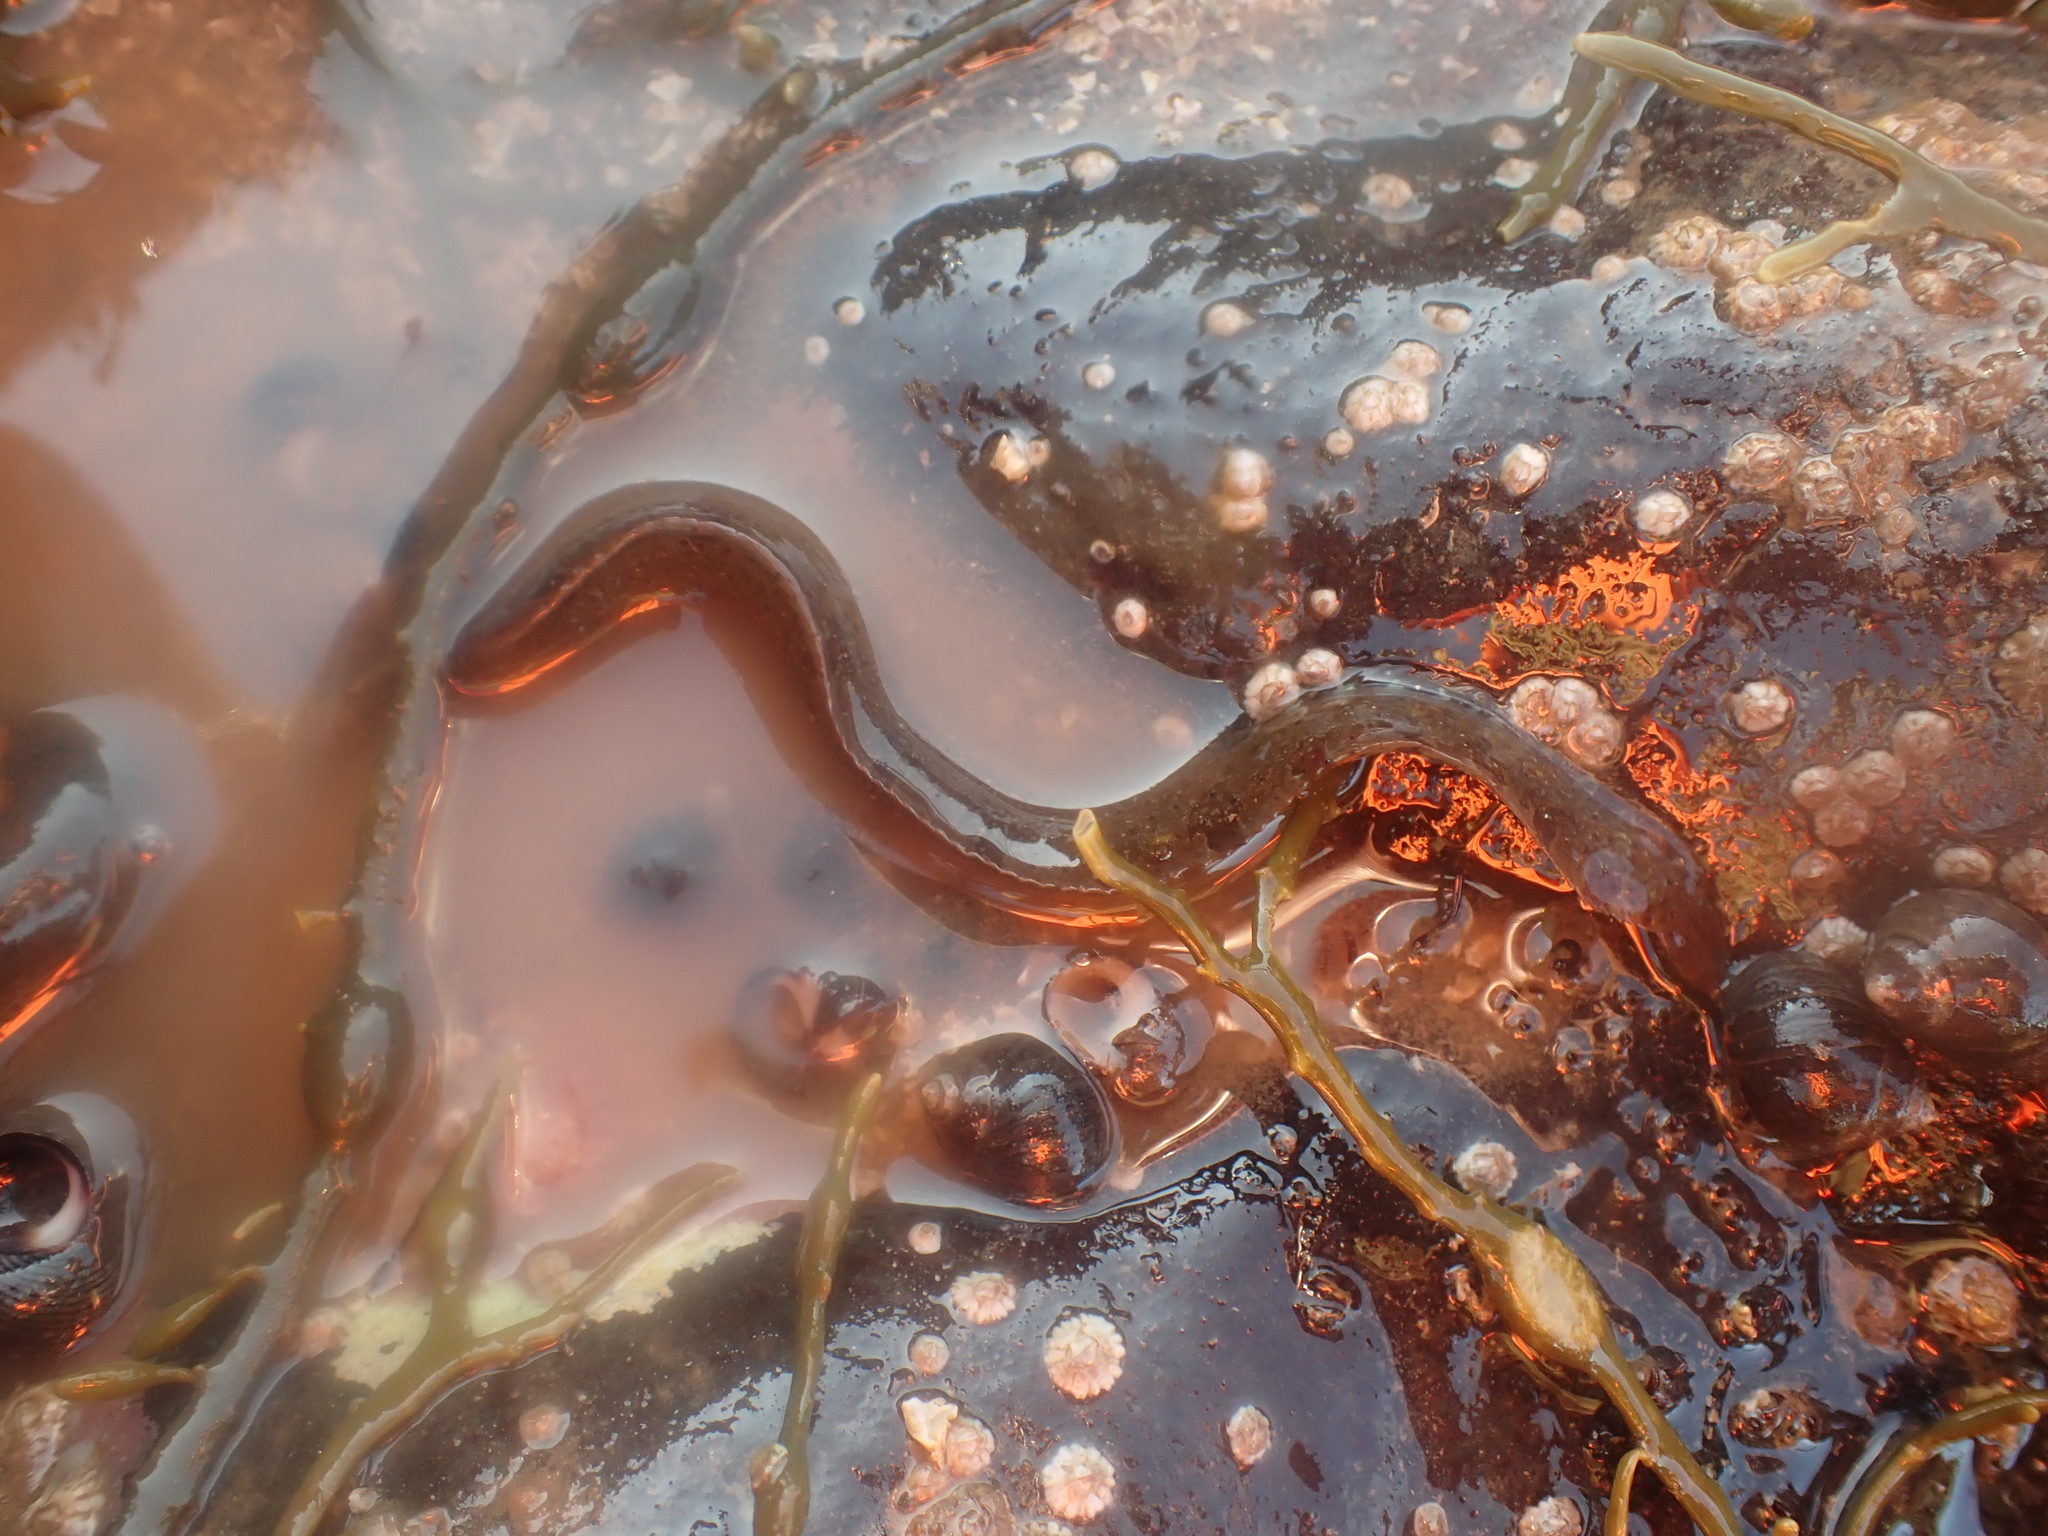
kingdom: Animalia
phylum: Chordata
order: Perciformes
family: Pholidae
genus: Pholis
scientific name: Pholis gunnellus
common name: Butterfish
